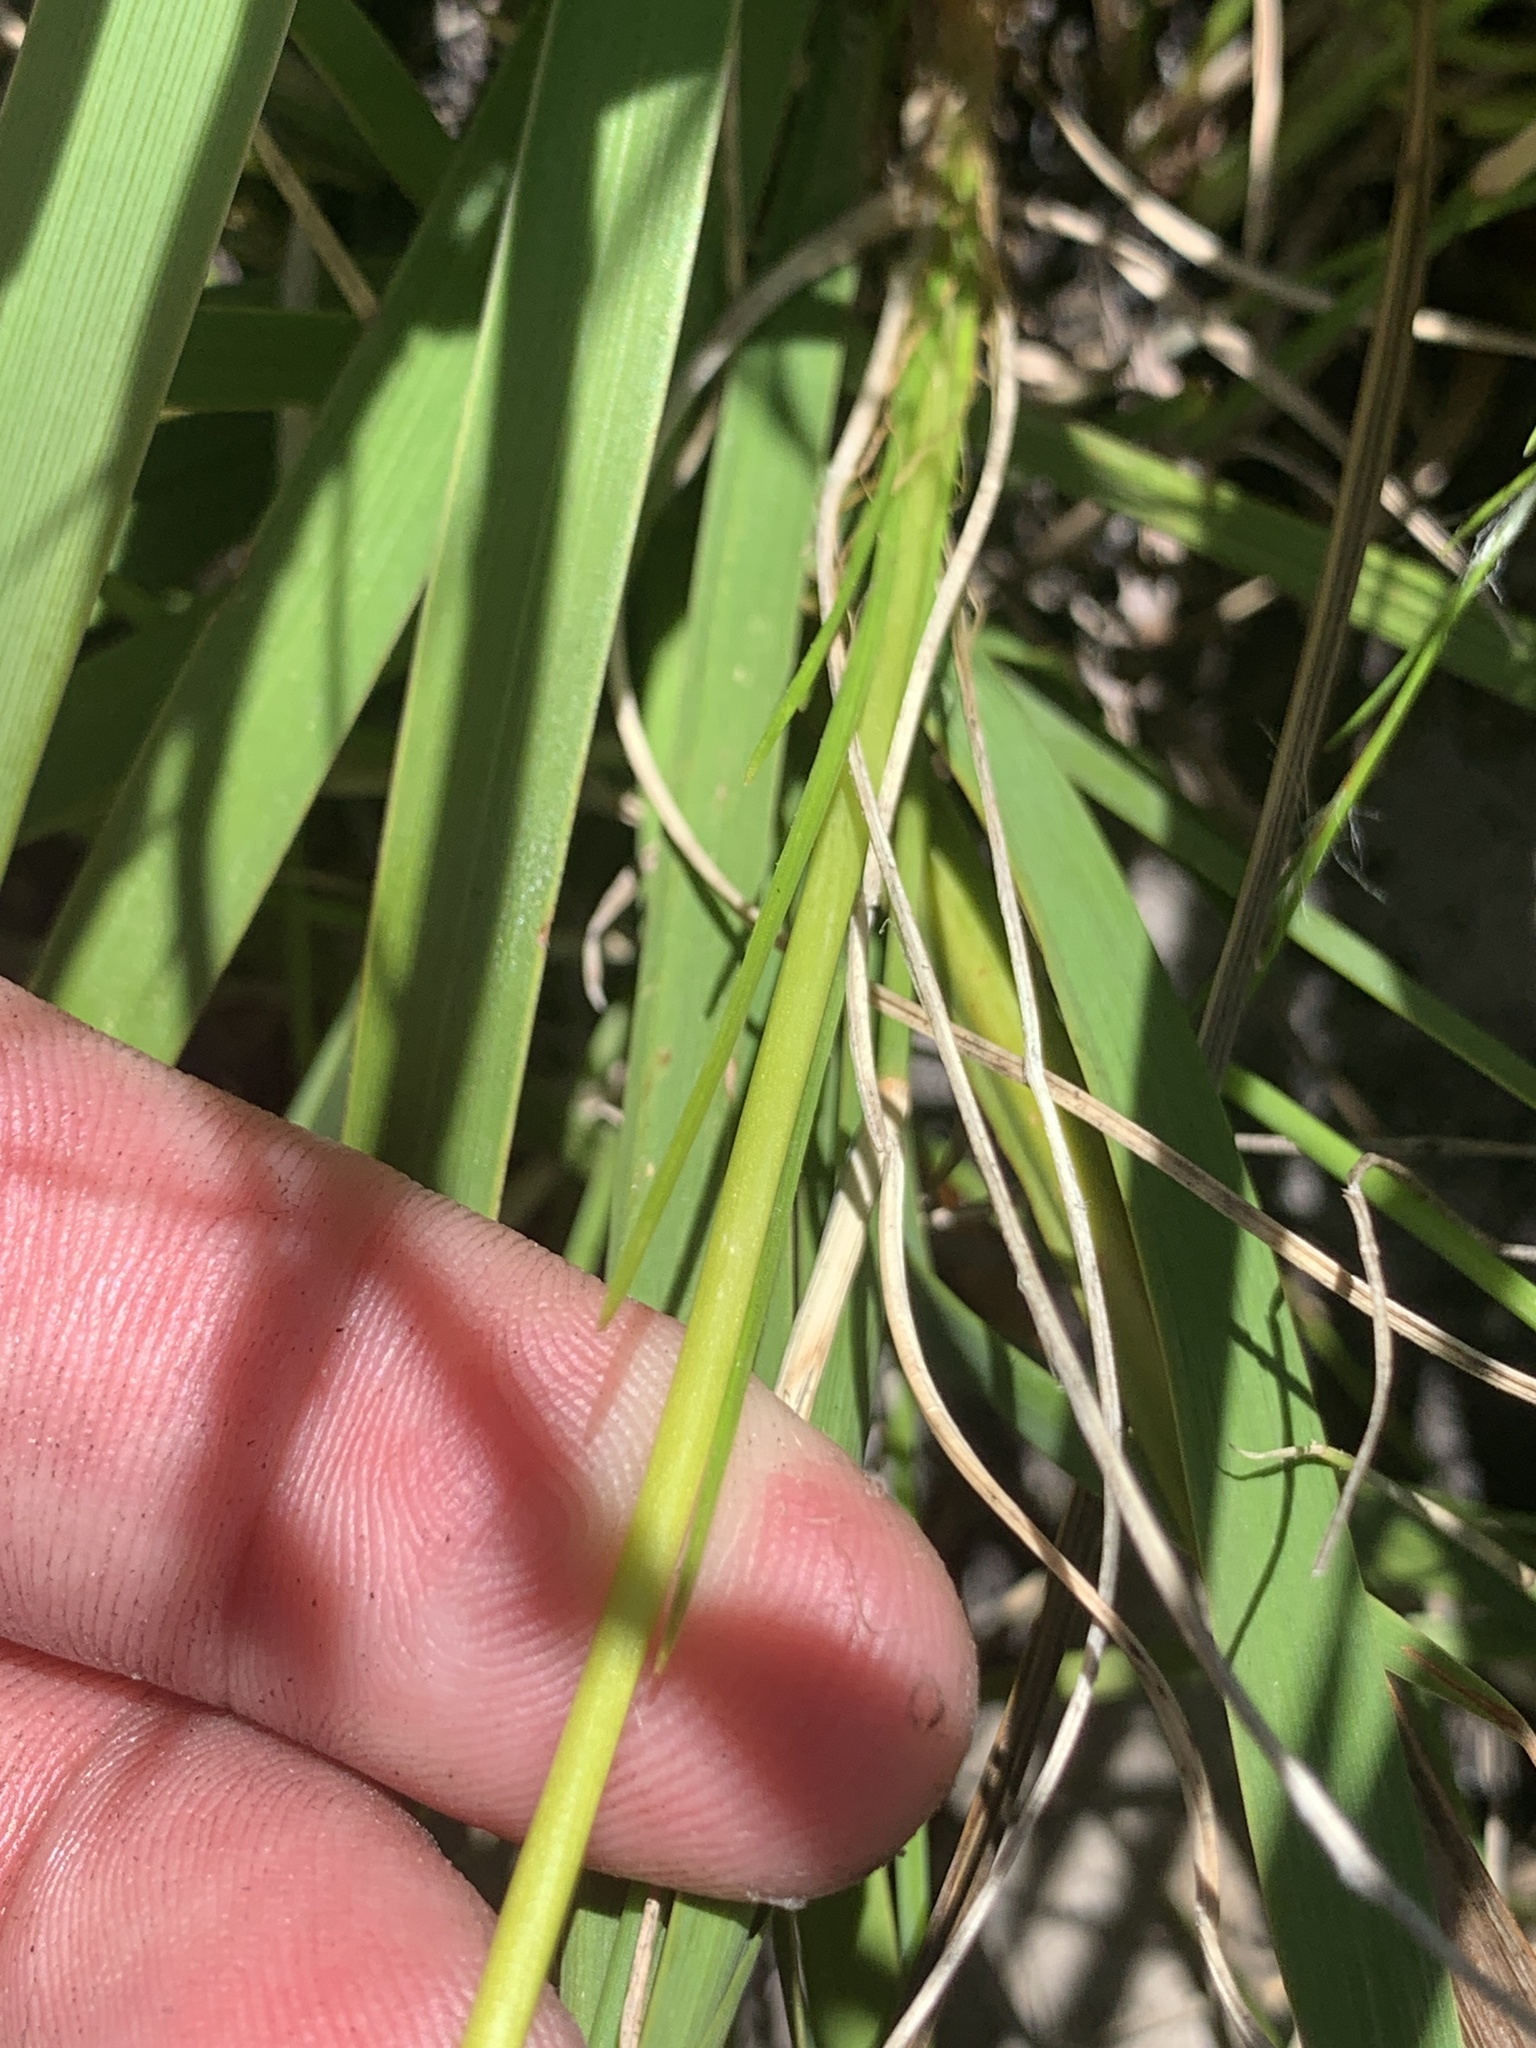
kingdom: Plantae
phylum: Tracheophyta
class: Liliopsida
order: Asparagales
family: Asphodelaceae
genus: Bulbinella
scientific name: Bulbinella trinervis
